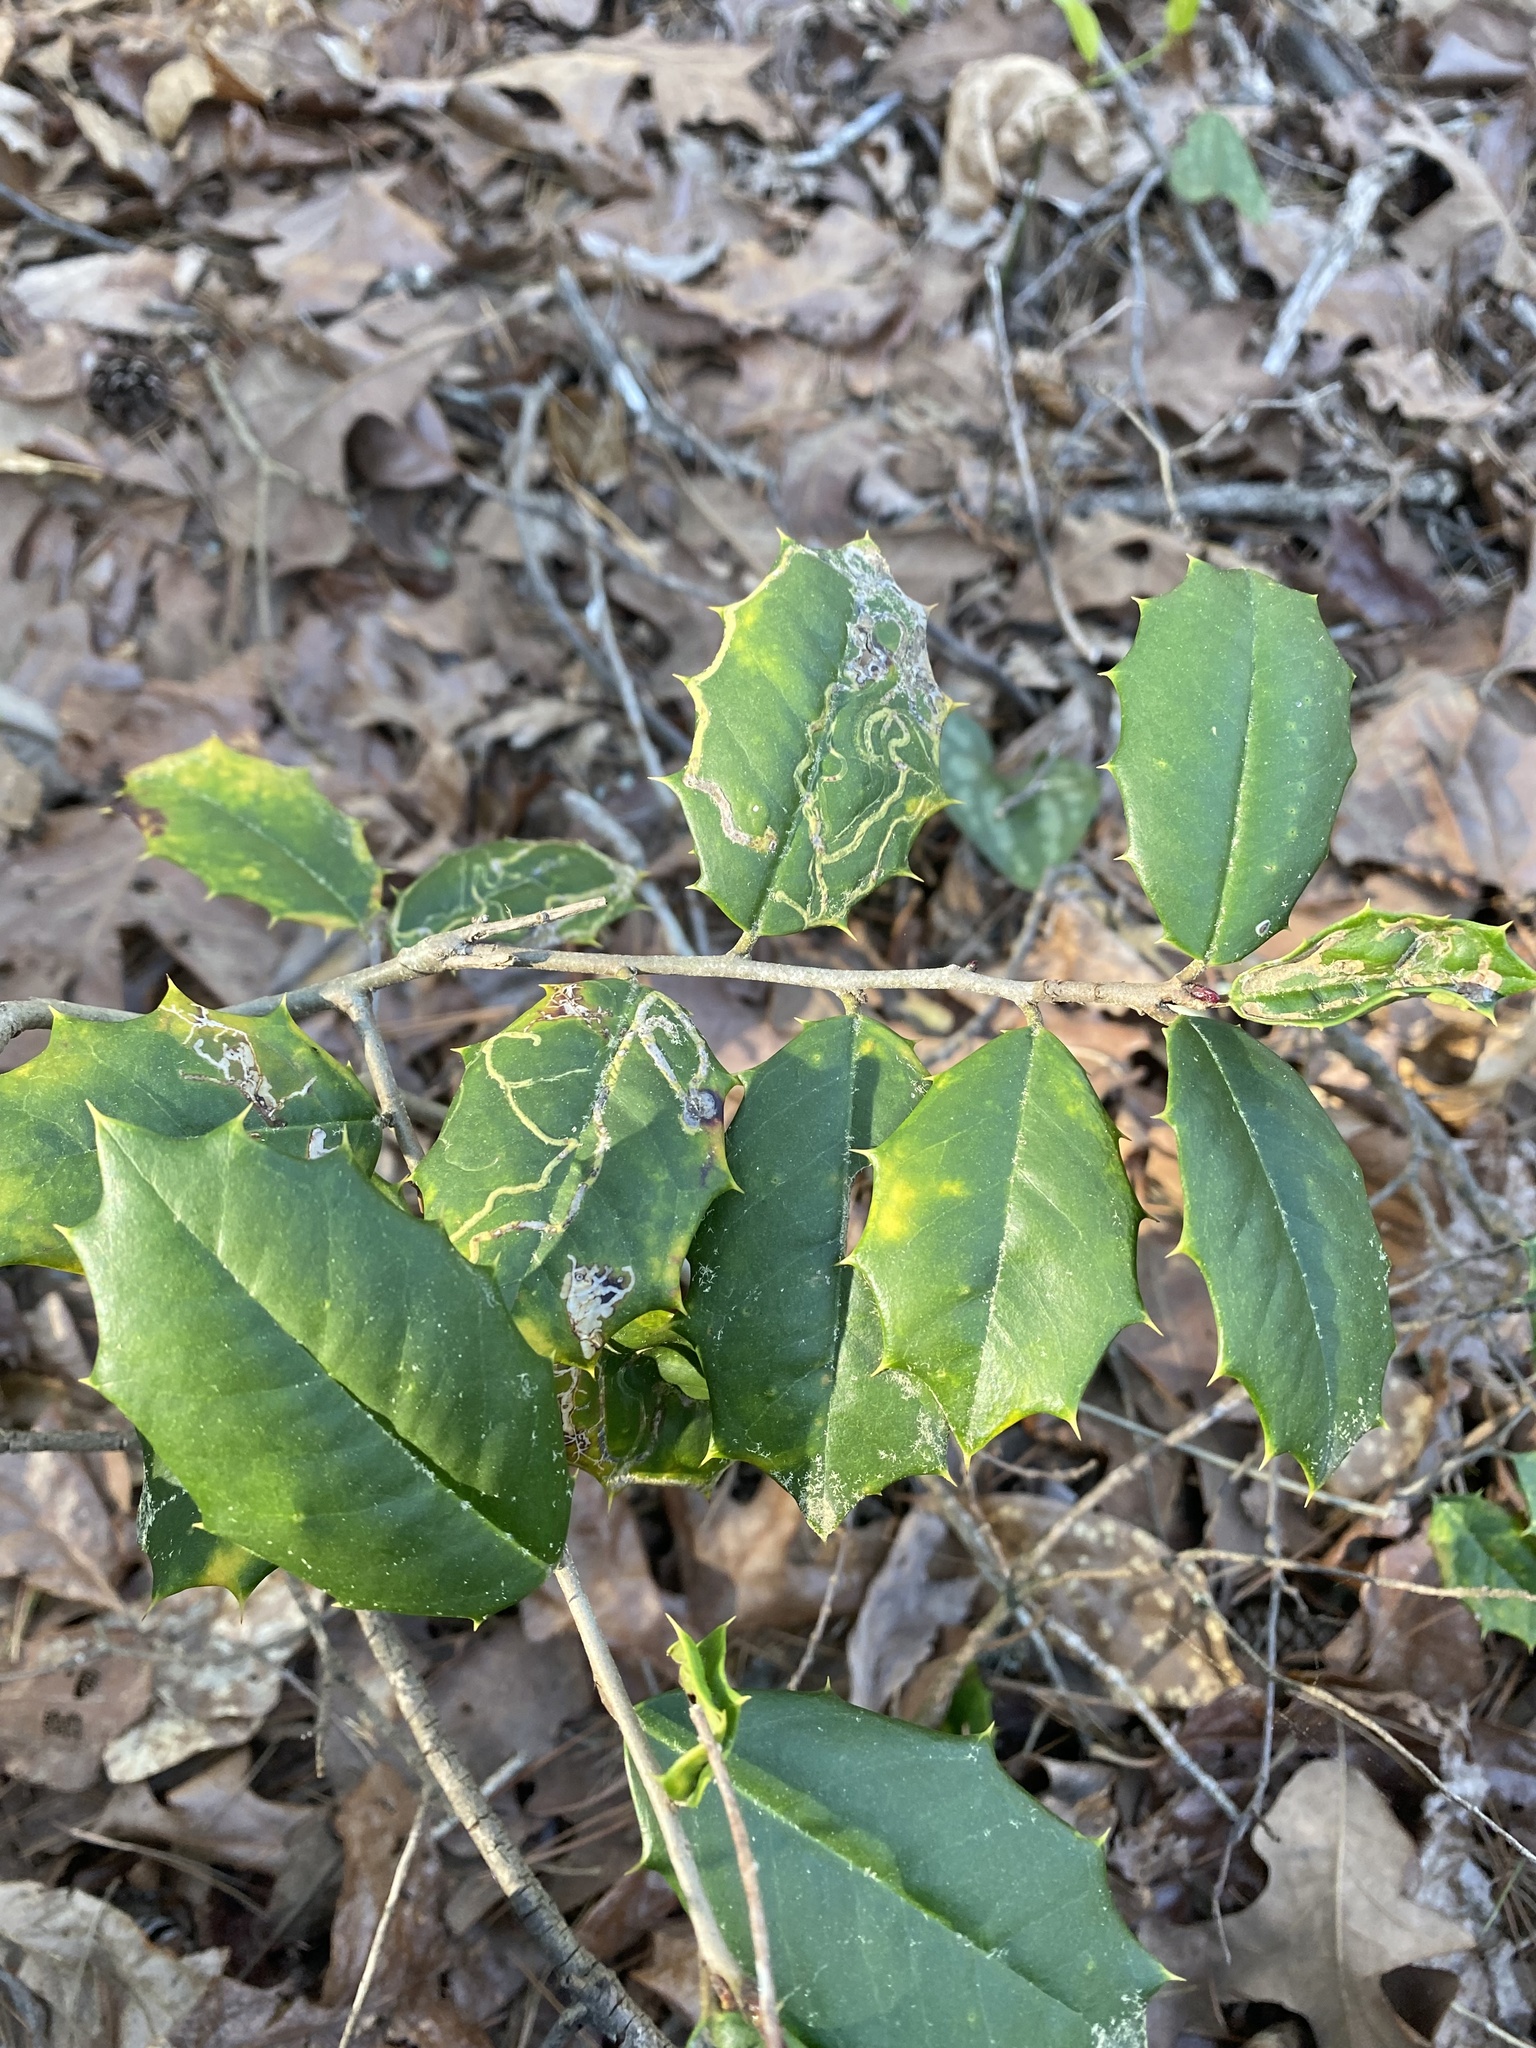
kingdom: Plantae
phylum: Tracheophyta
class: Magnoliopsida
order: Aquifoliales
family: Aquifoliaceae
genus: Ilex
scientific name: Ilex opaca
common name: American holly
